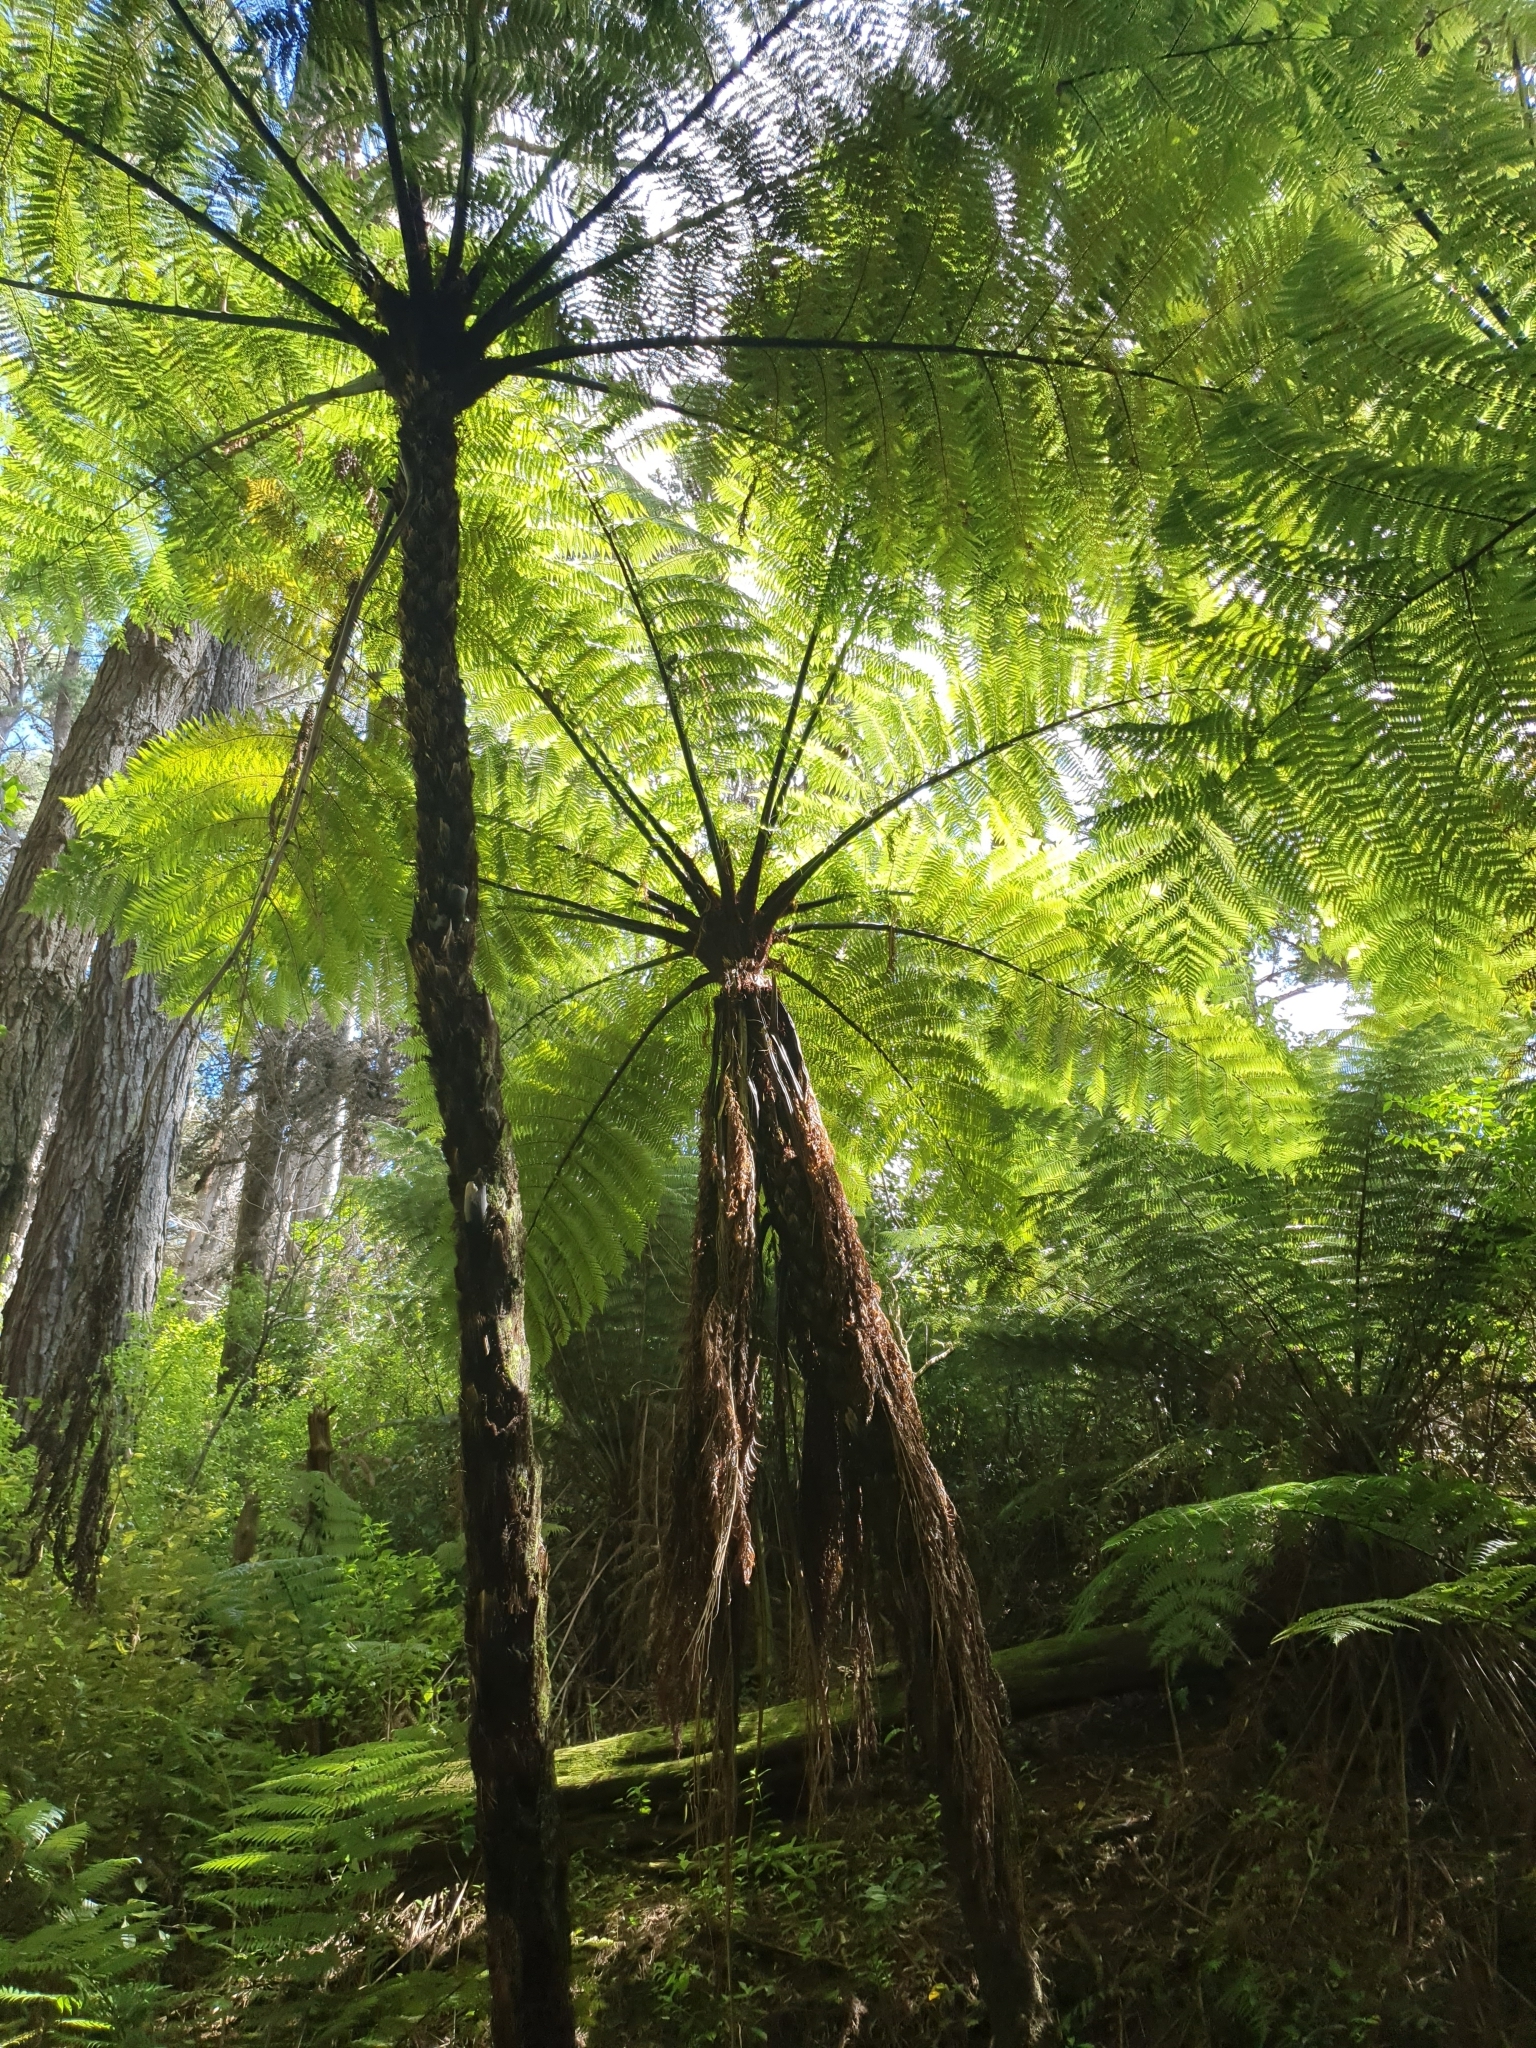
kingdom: Plantae
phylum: Tracheophyta
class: Polypodiopsida
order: Cyatheales
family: Cyatheaceae
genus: Sphaeropteris
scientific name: Sphaeropteris medullaris
